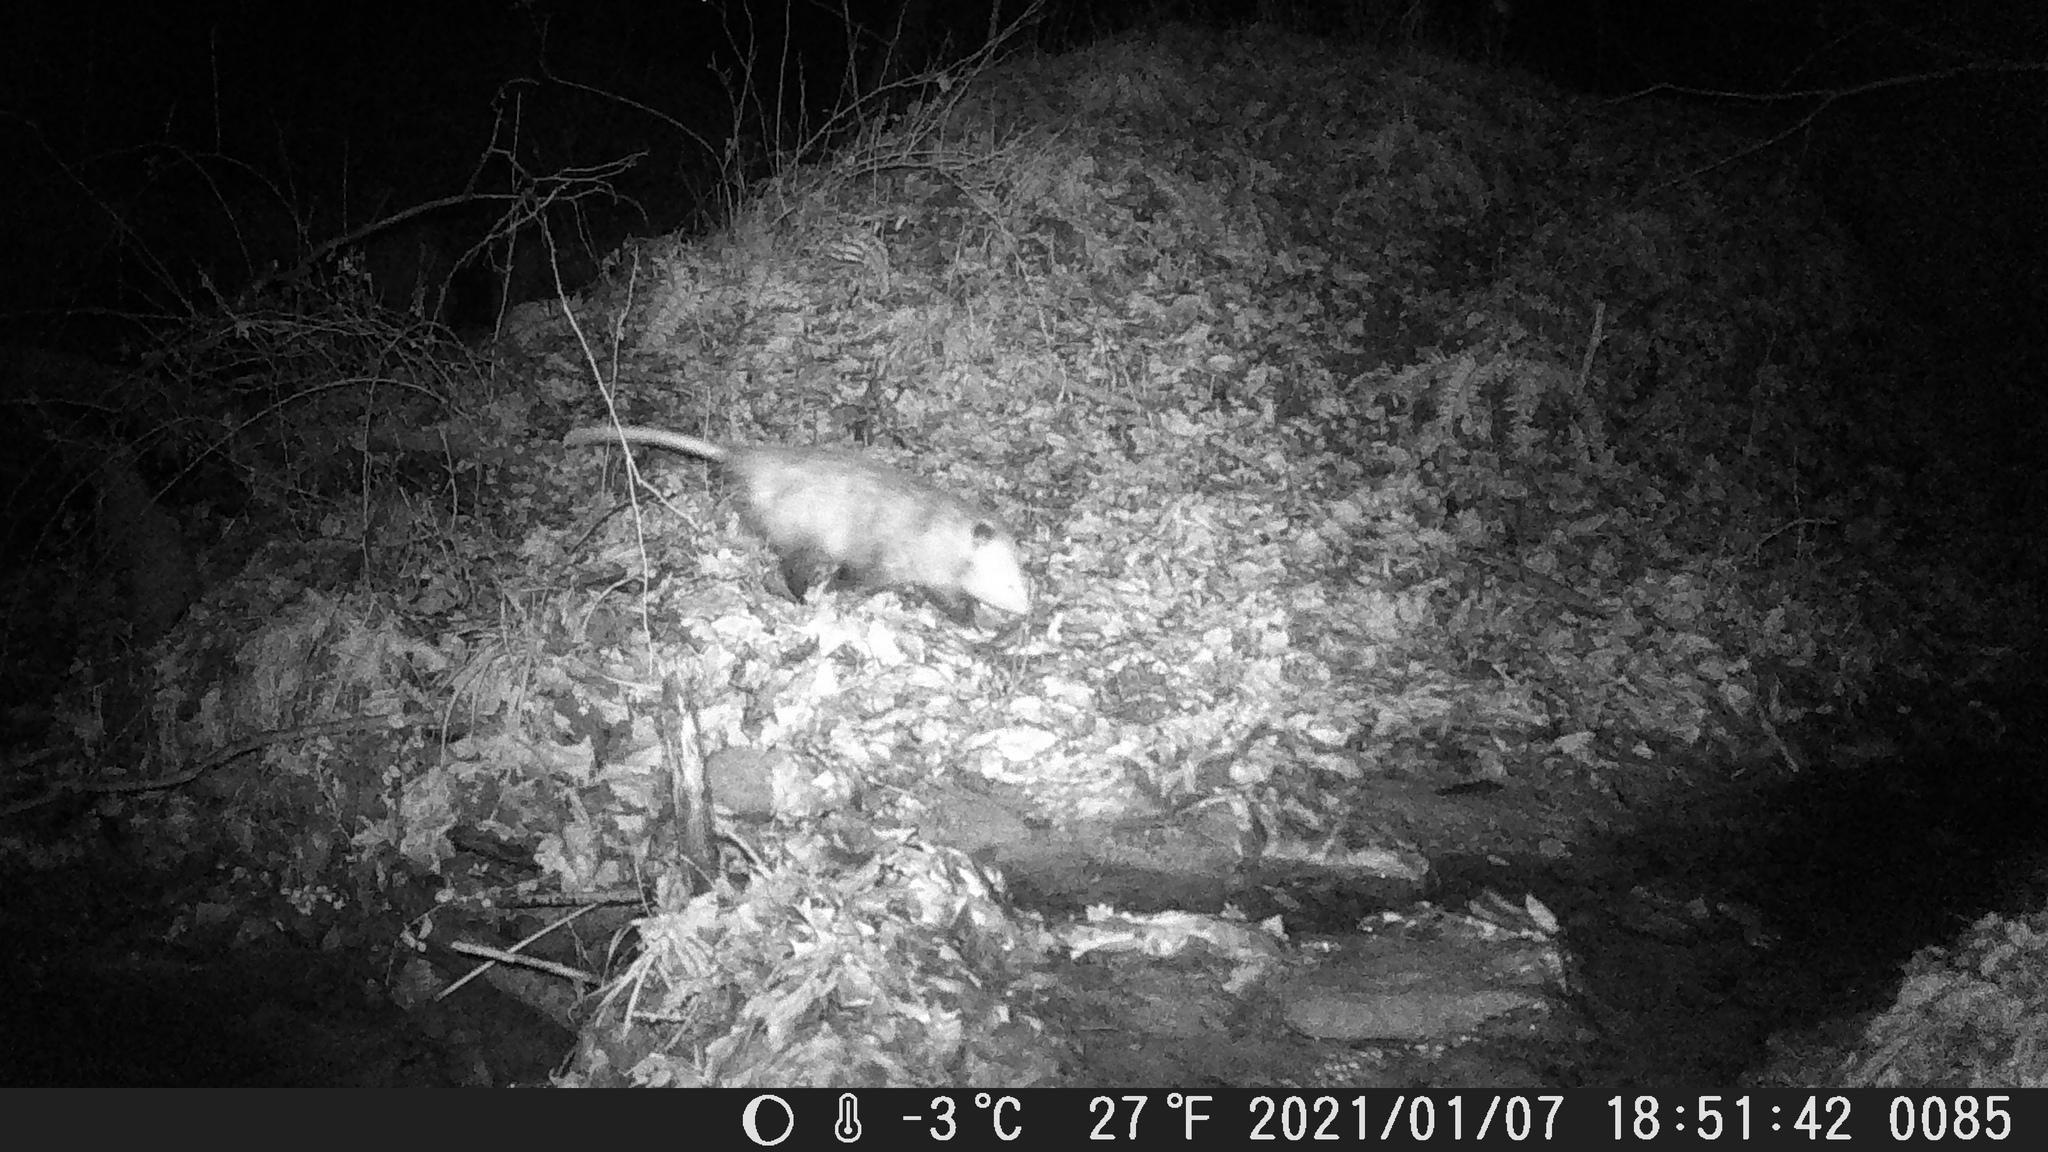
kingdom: Animalia
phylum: Chordata
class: Mammalia
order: Didelphimorphia
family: Didelphidae
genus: Didelphis
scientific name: Didelphis virginiana
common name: Virginia opossum
